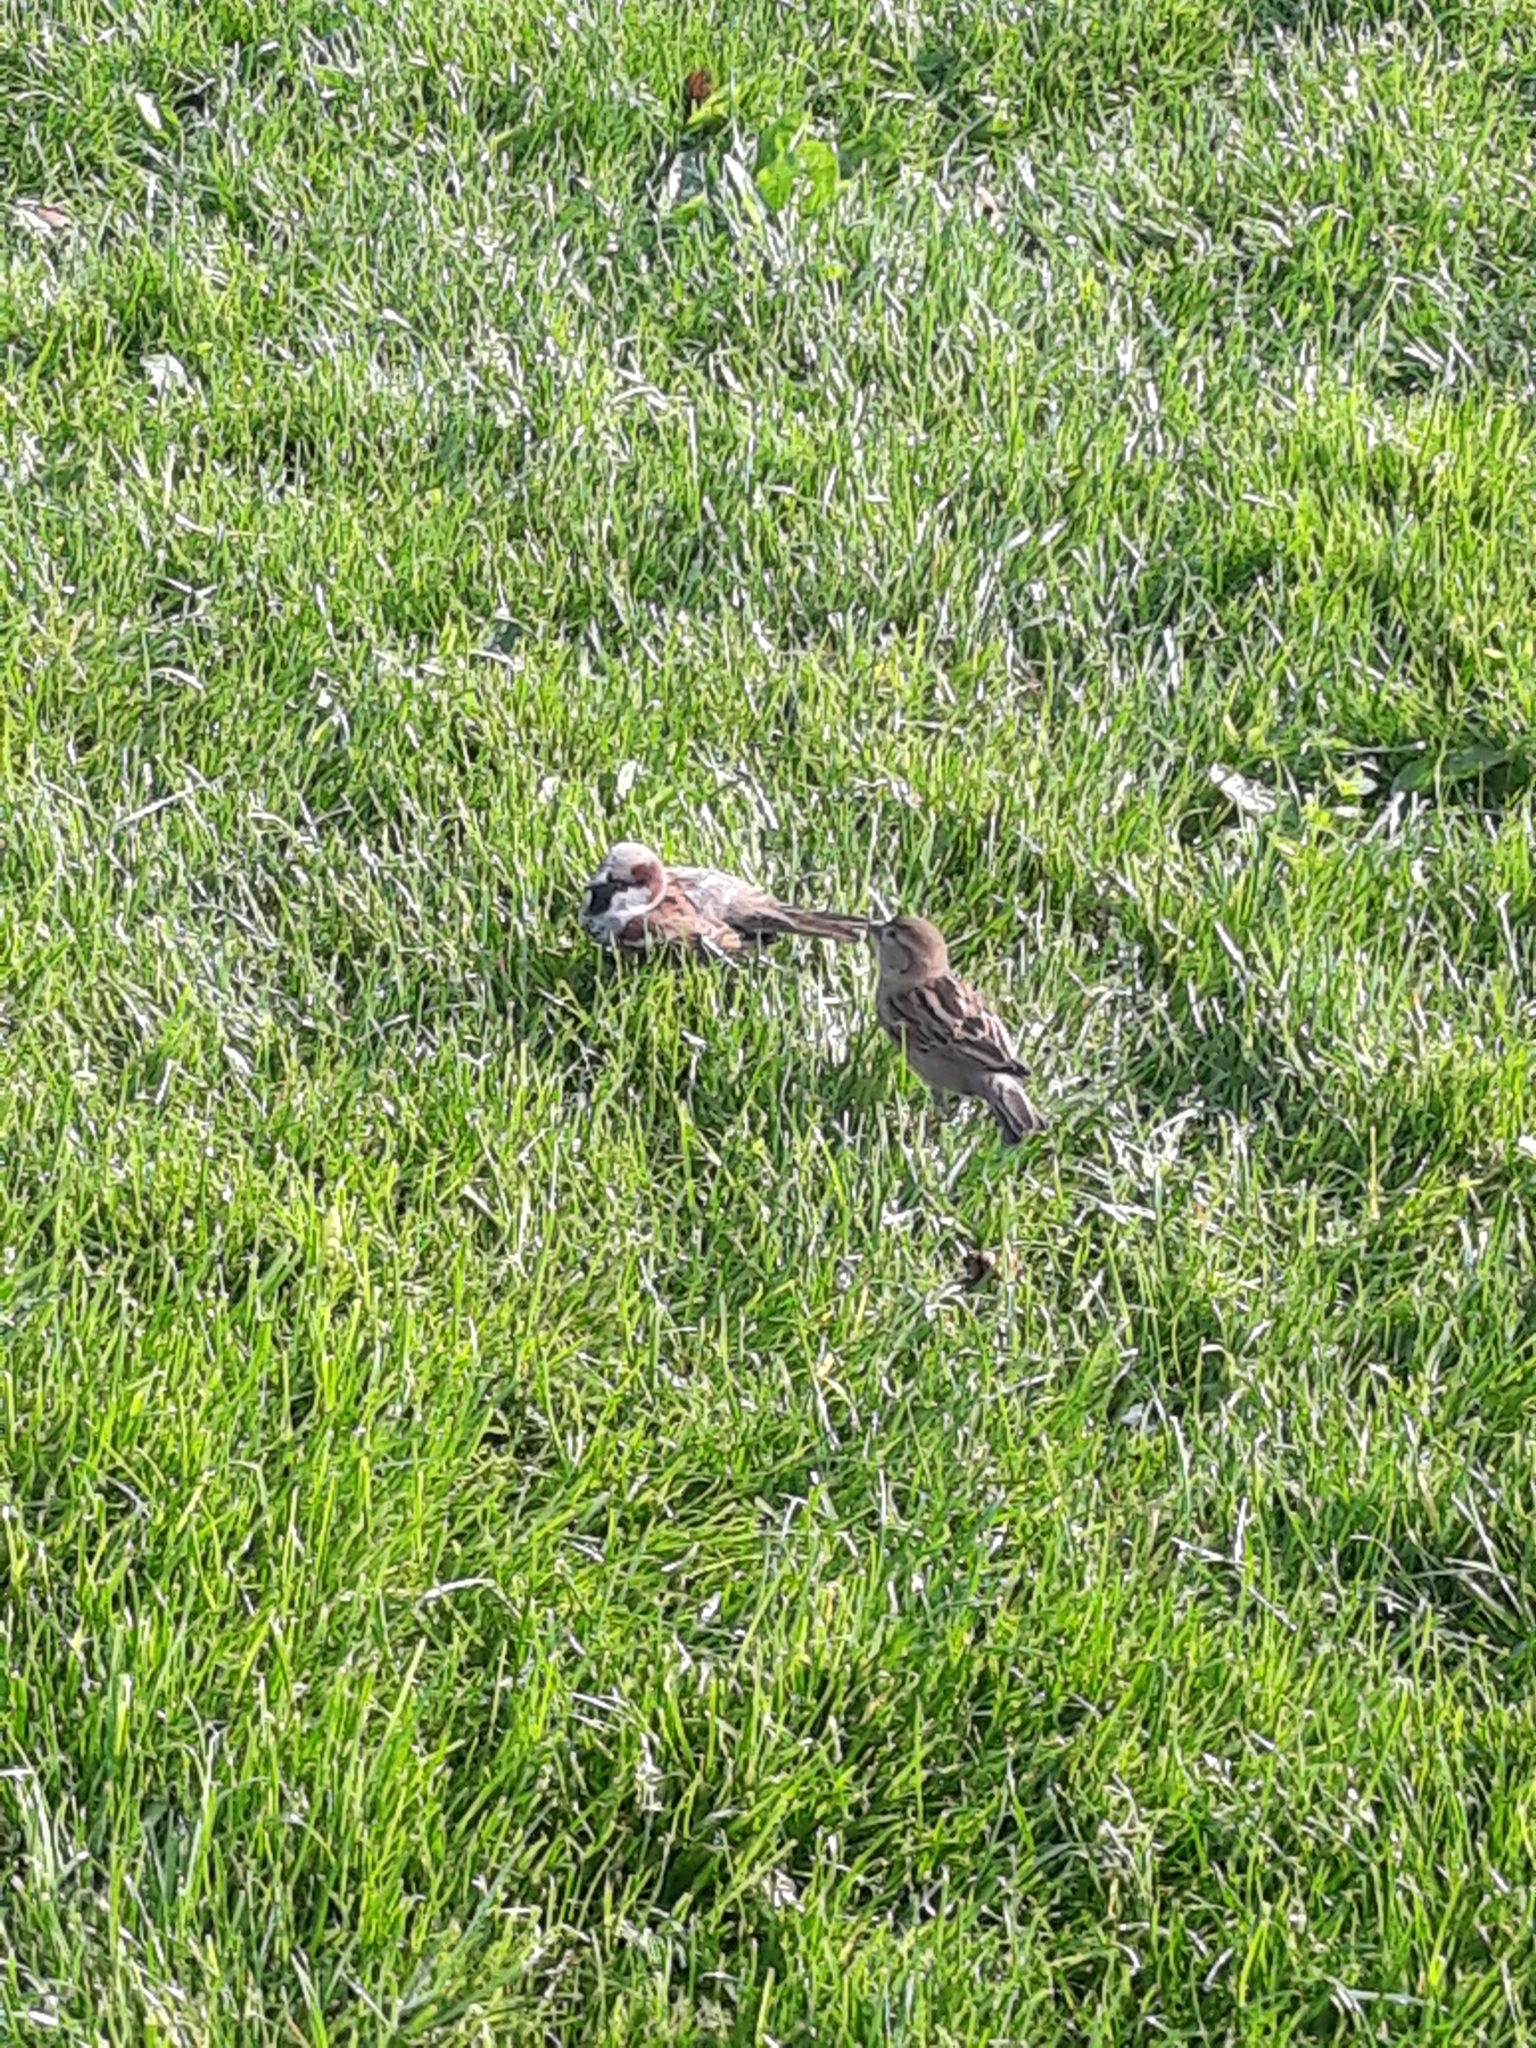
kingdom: Animalia
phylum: Chordata
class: Aves
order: Passeriformes
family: Passeridae
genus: Passer
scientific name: Passer domesticus
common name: House sparrow
